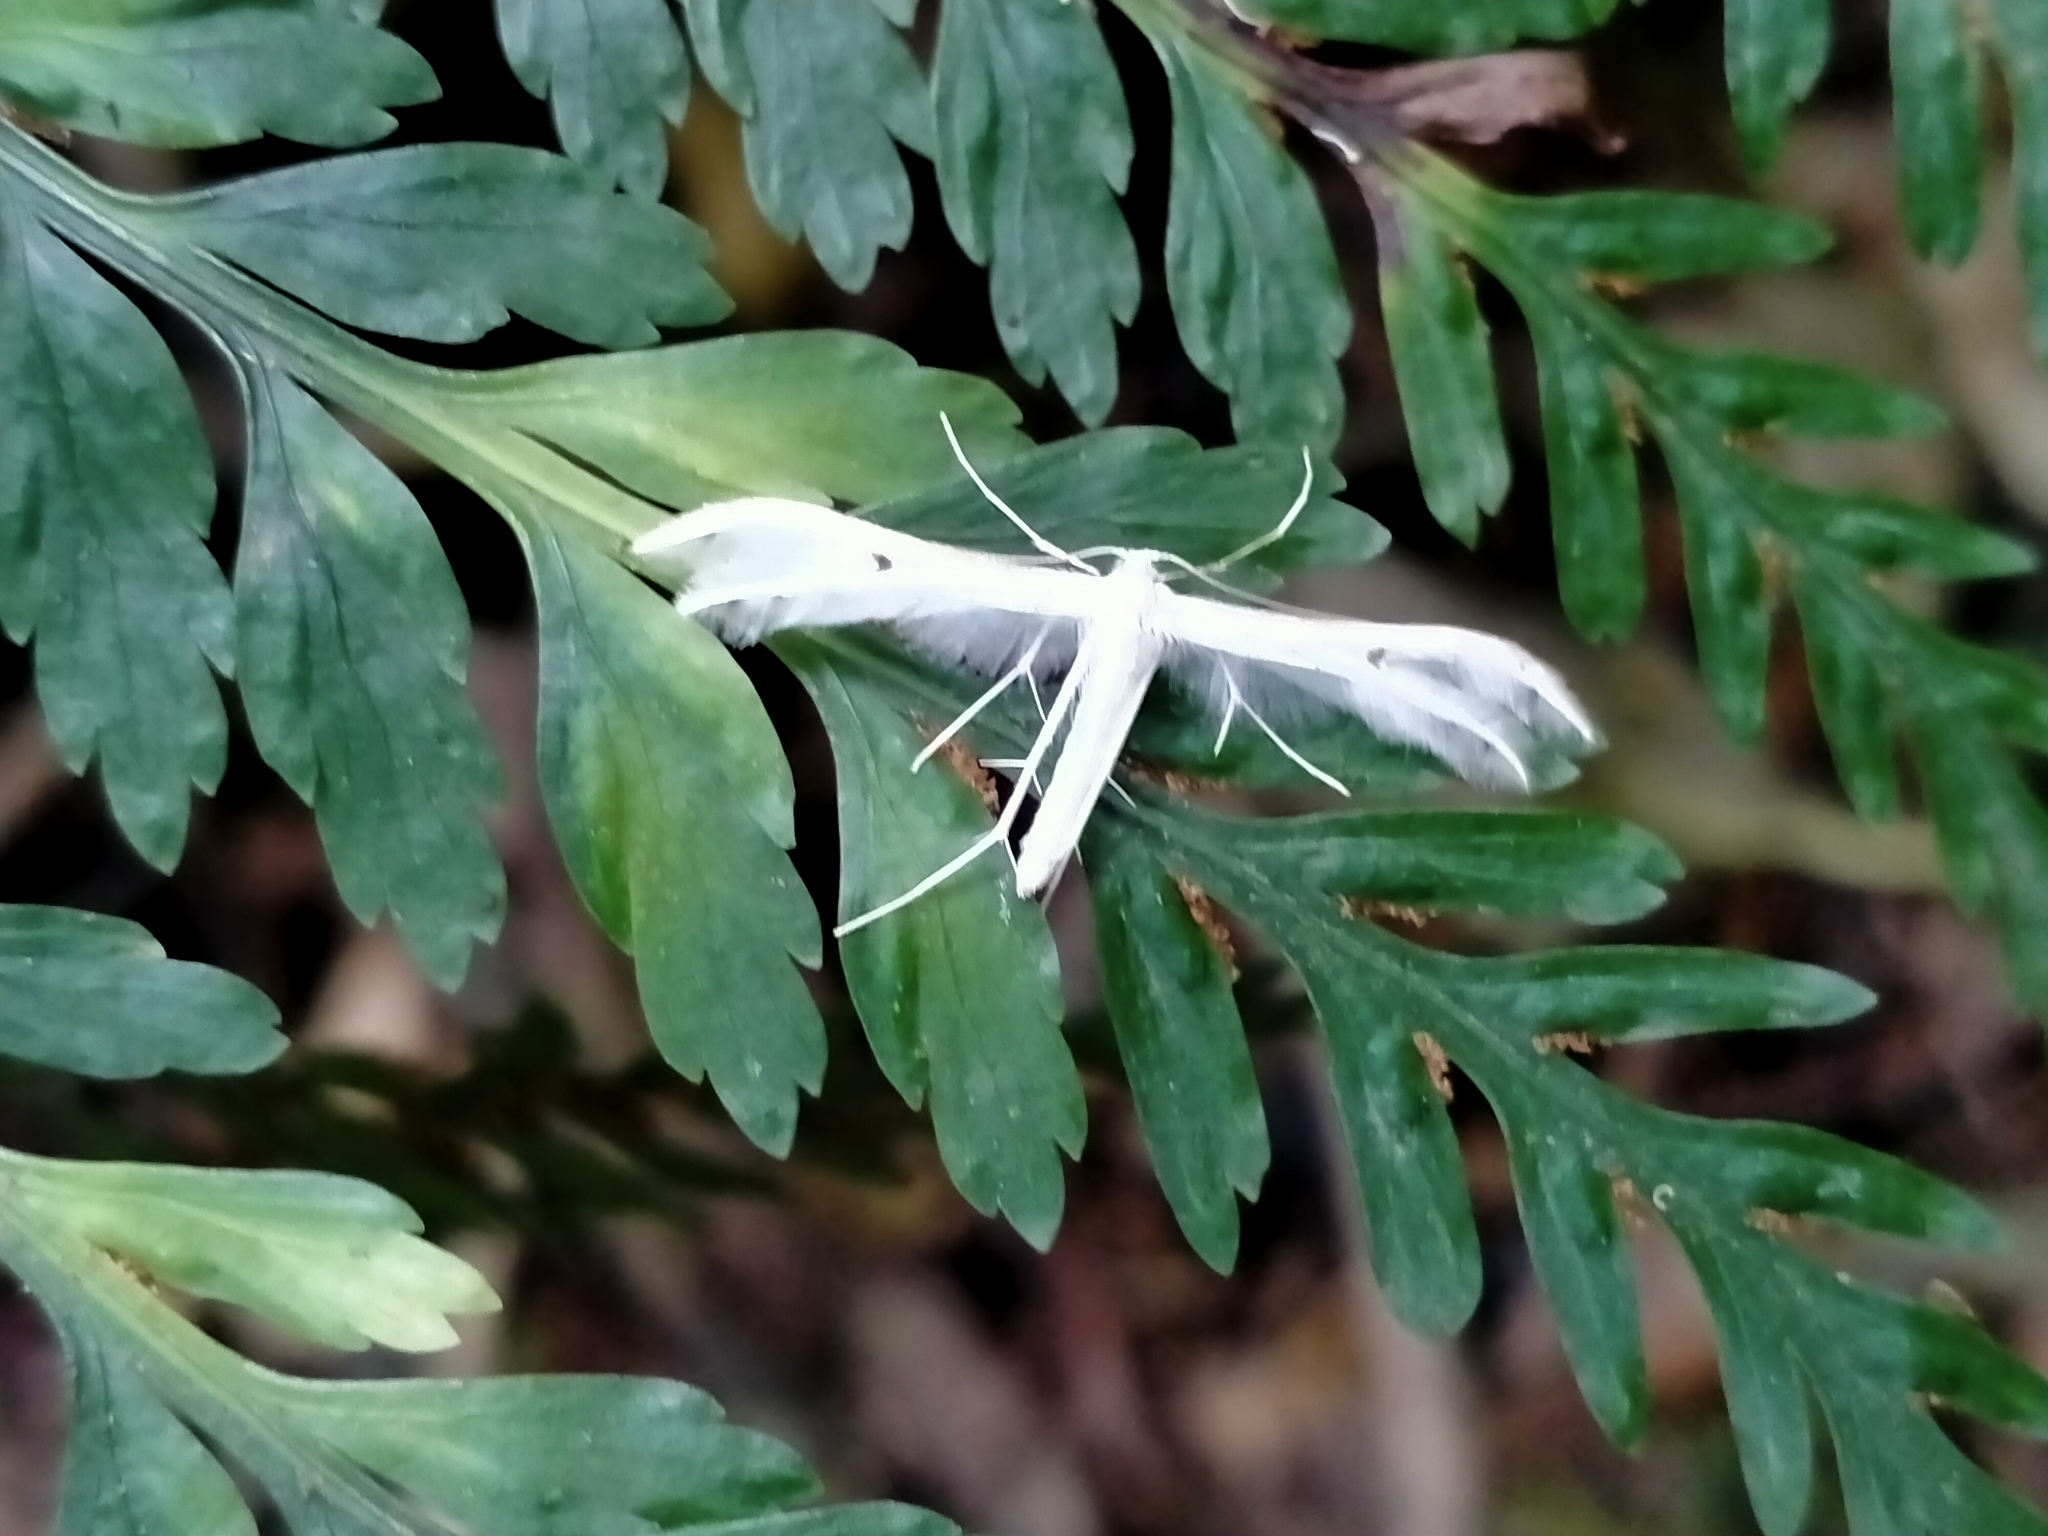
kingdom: Animalia
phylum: Arthropoda
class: Insecta
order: Lepidoptera
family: Pterophoridae
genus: Pterophorus
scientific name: Pterophorus monospilalis
